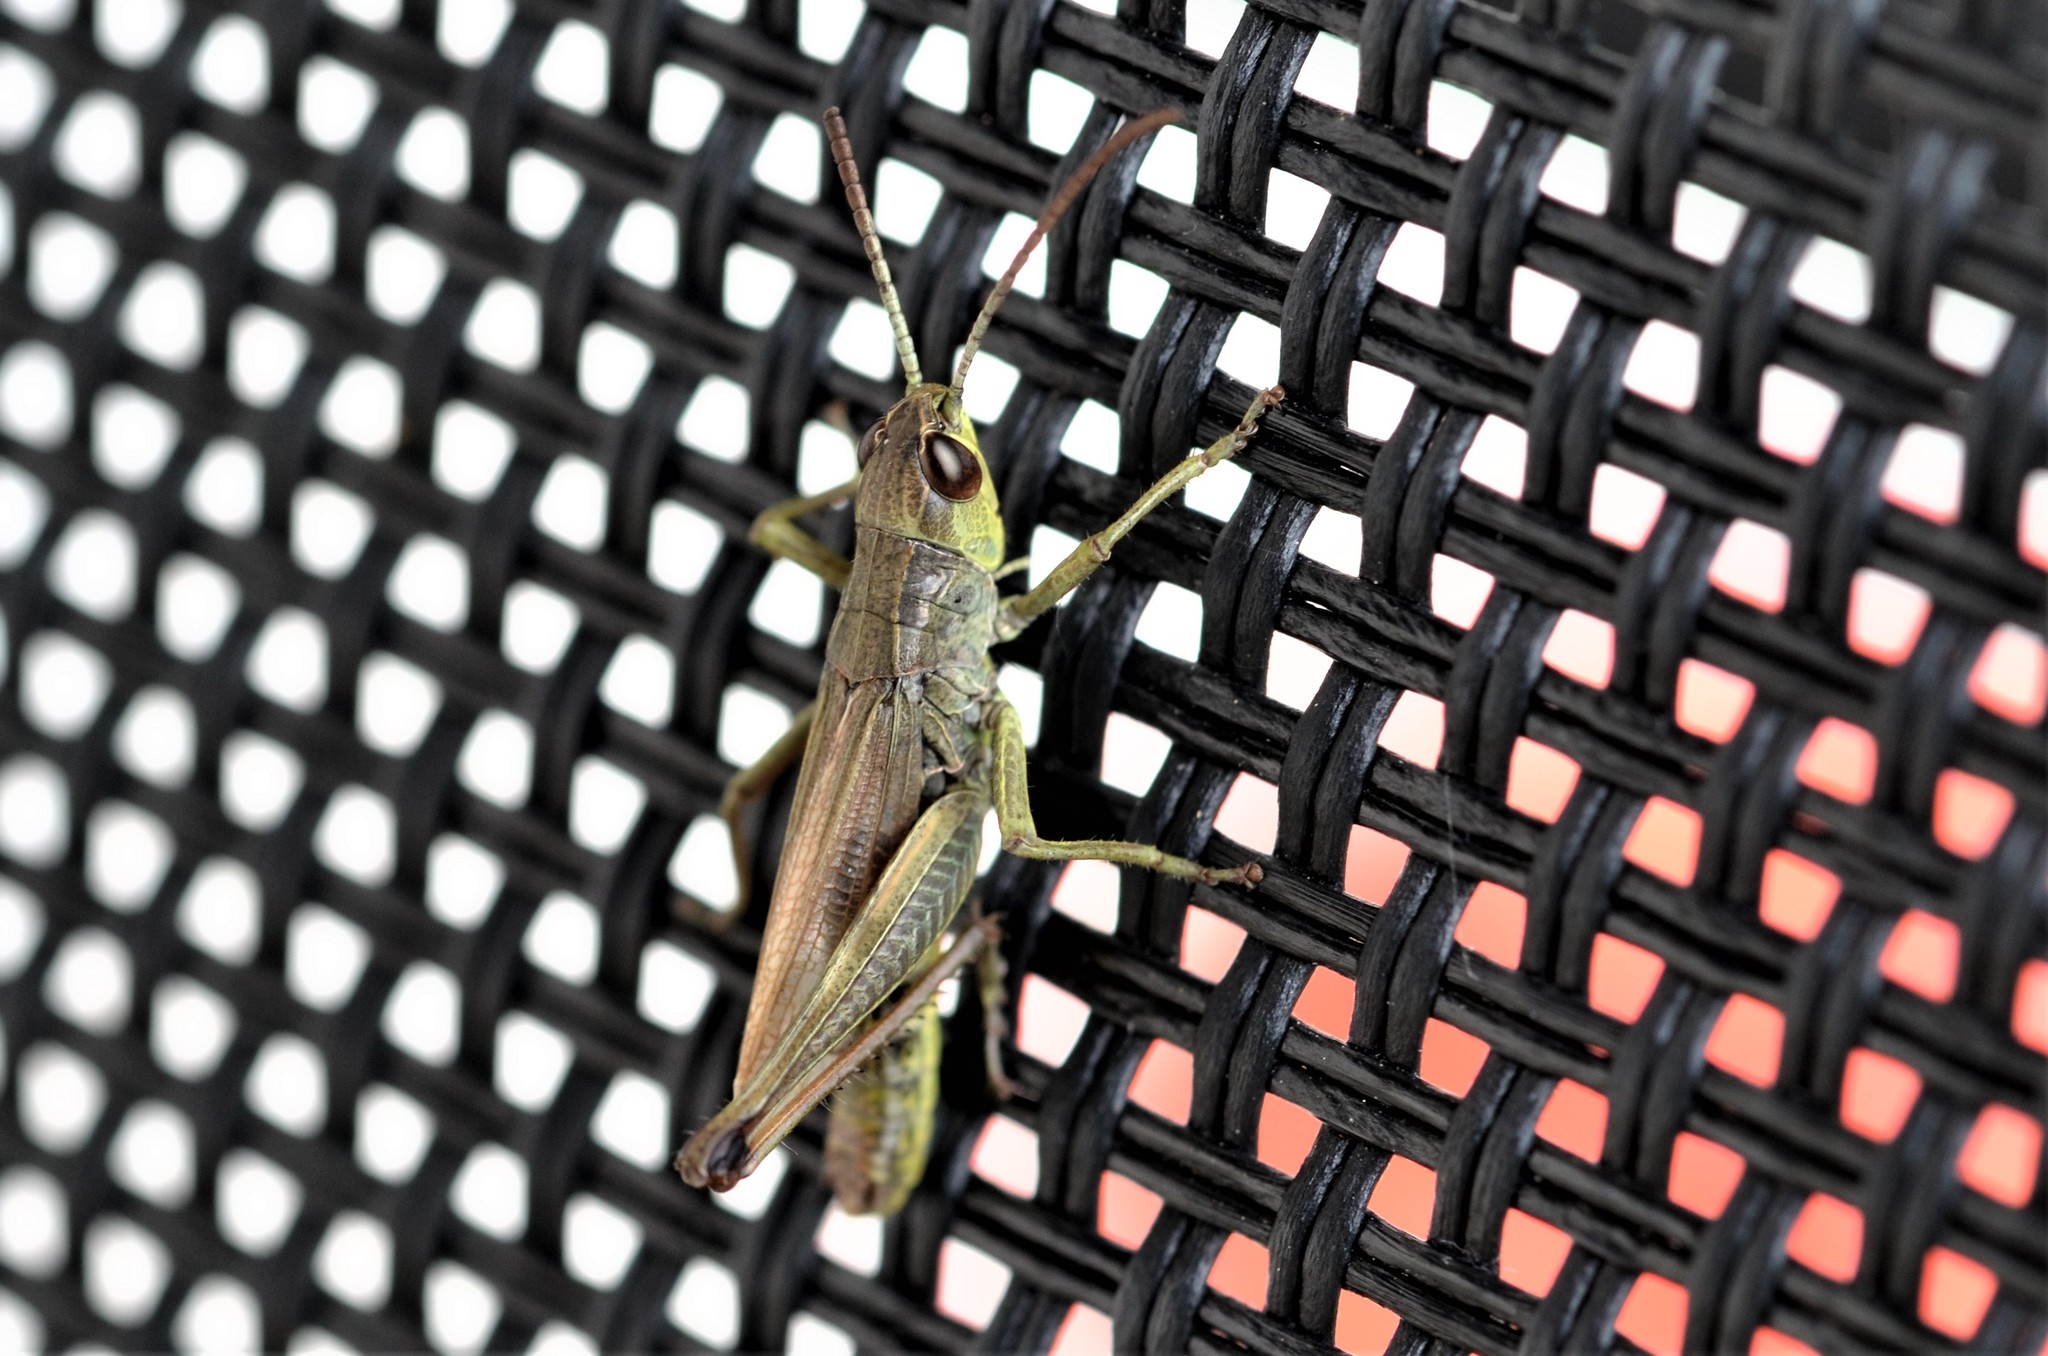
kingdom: Animalia
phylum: Arthropoda
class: Insecta
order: Orthoptera
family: Acrididae
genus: Pseudochorthippus
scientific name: Pseudochorthippus parallelus
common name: Meadow grasshopper
